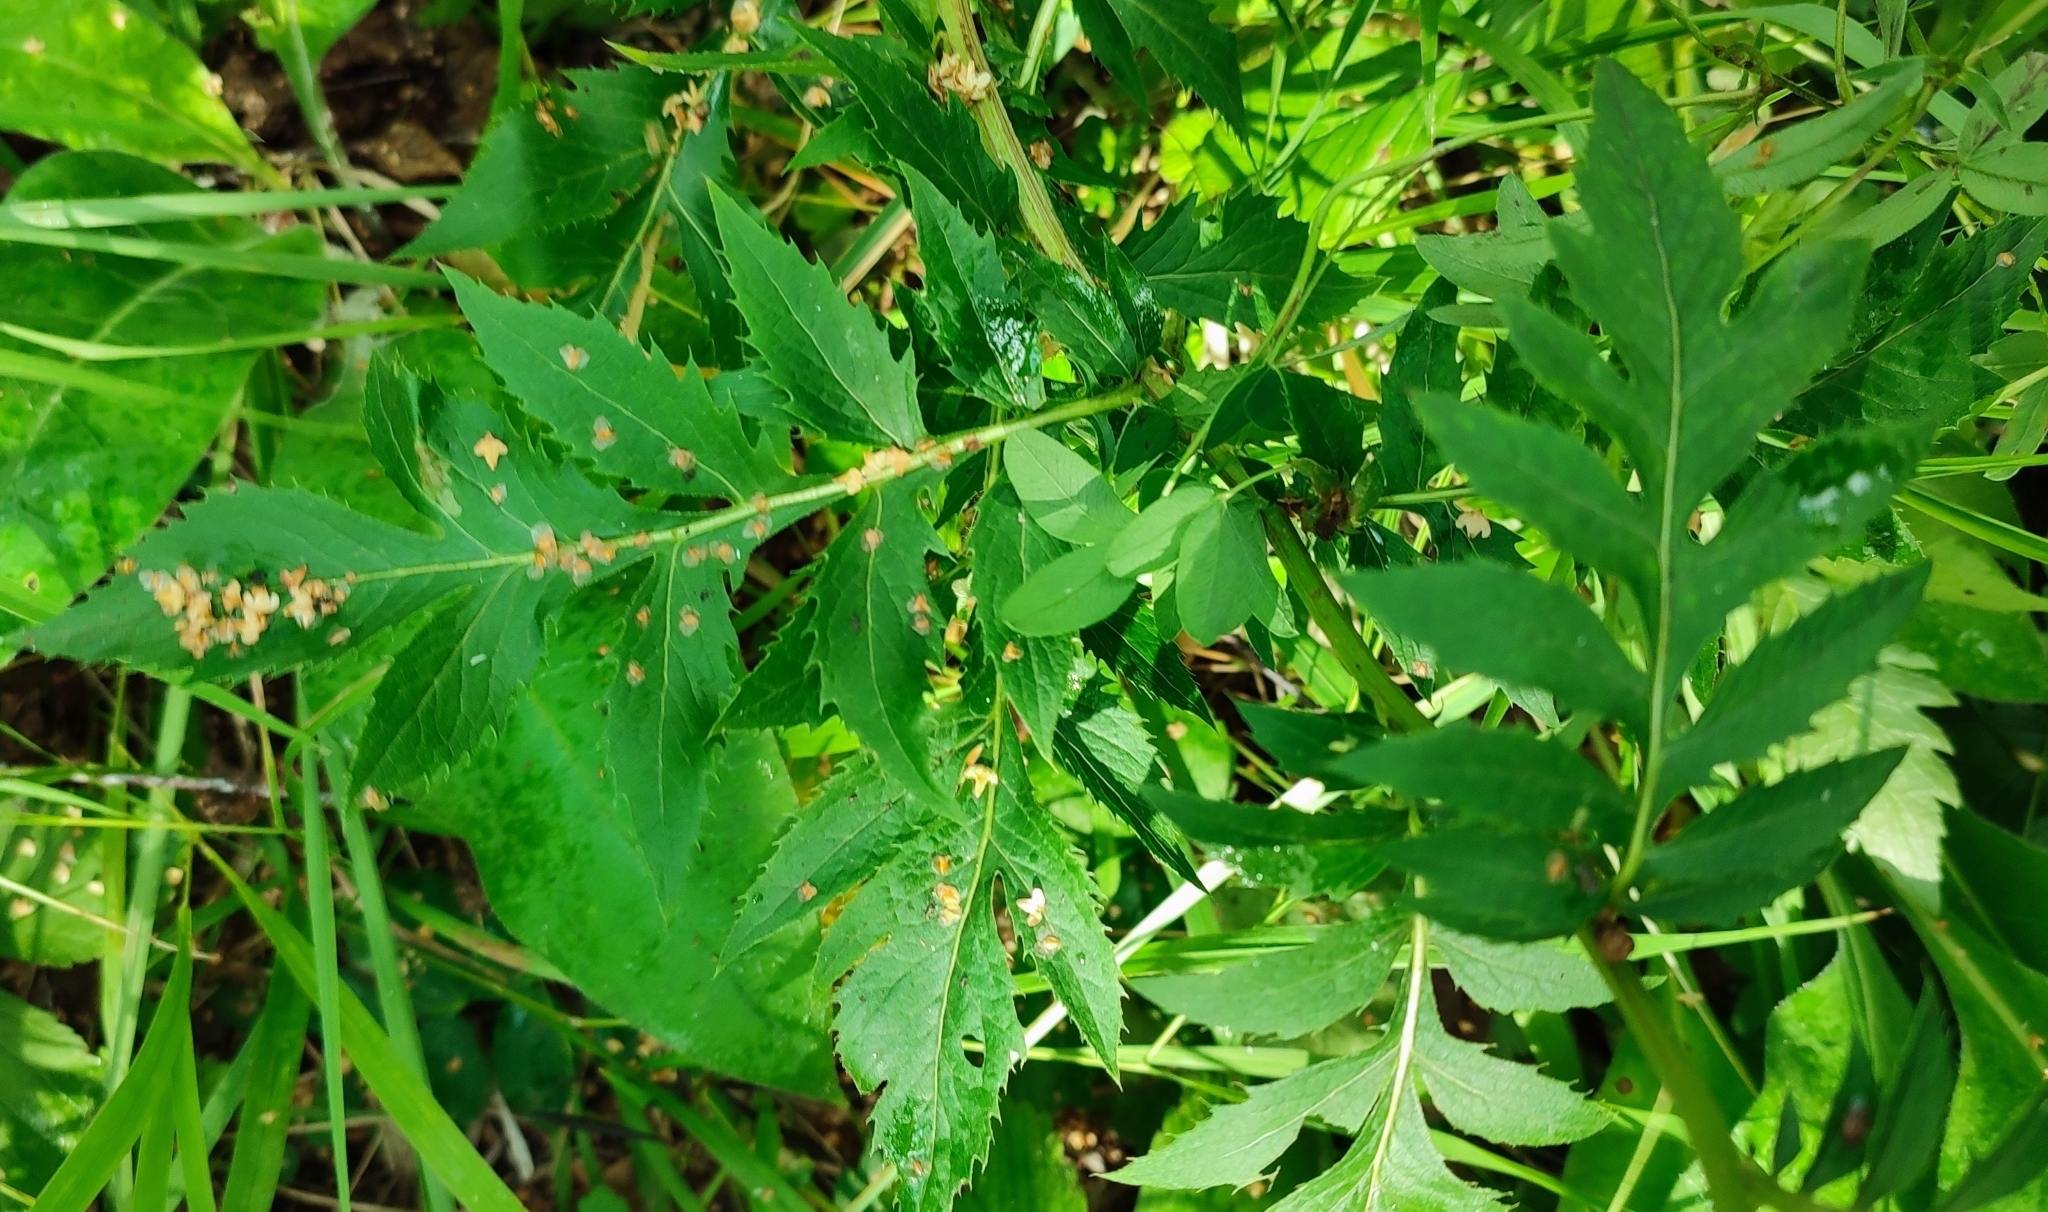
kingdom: Plantae
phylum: Tracheophyta
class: Magnoliopsida
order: Asterales
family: Asteraceae
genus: Serratula
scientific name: Serratula coronata
